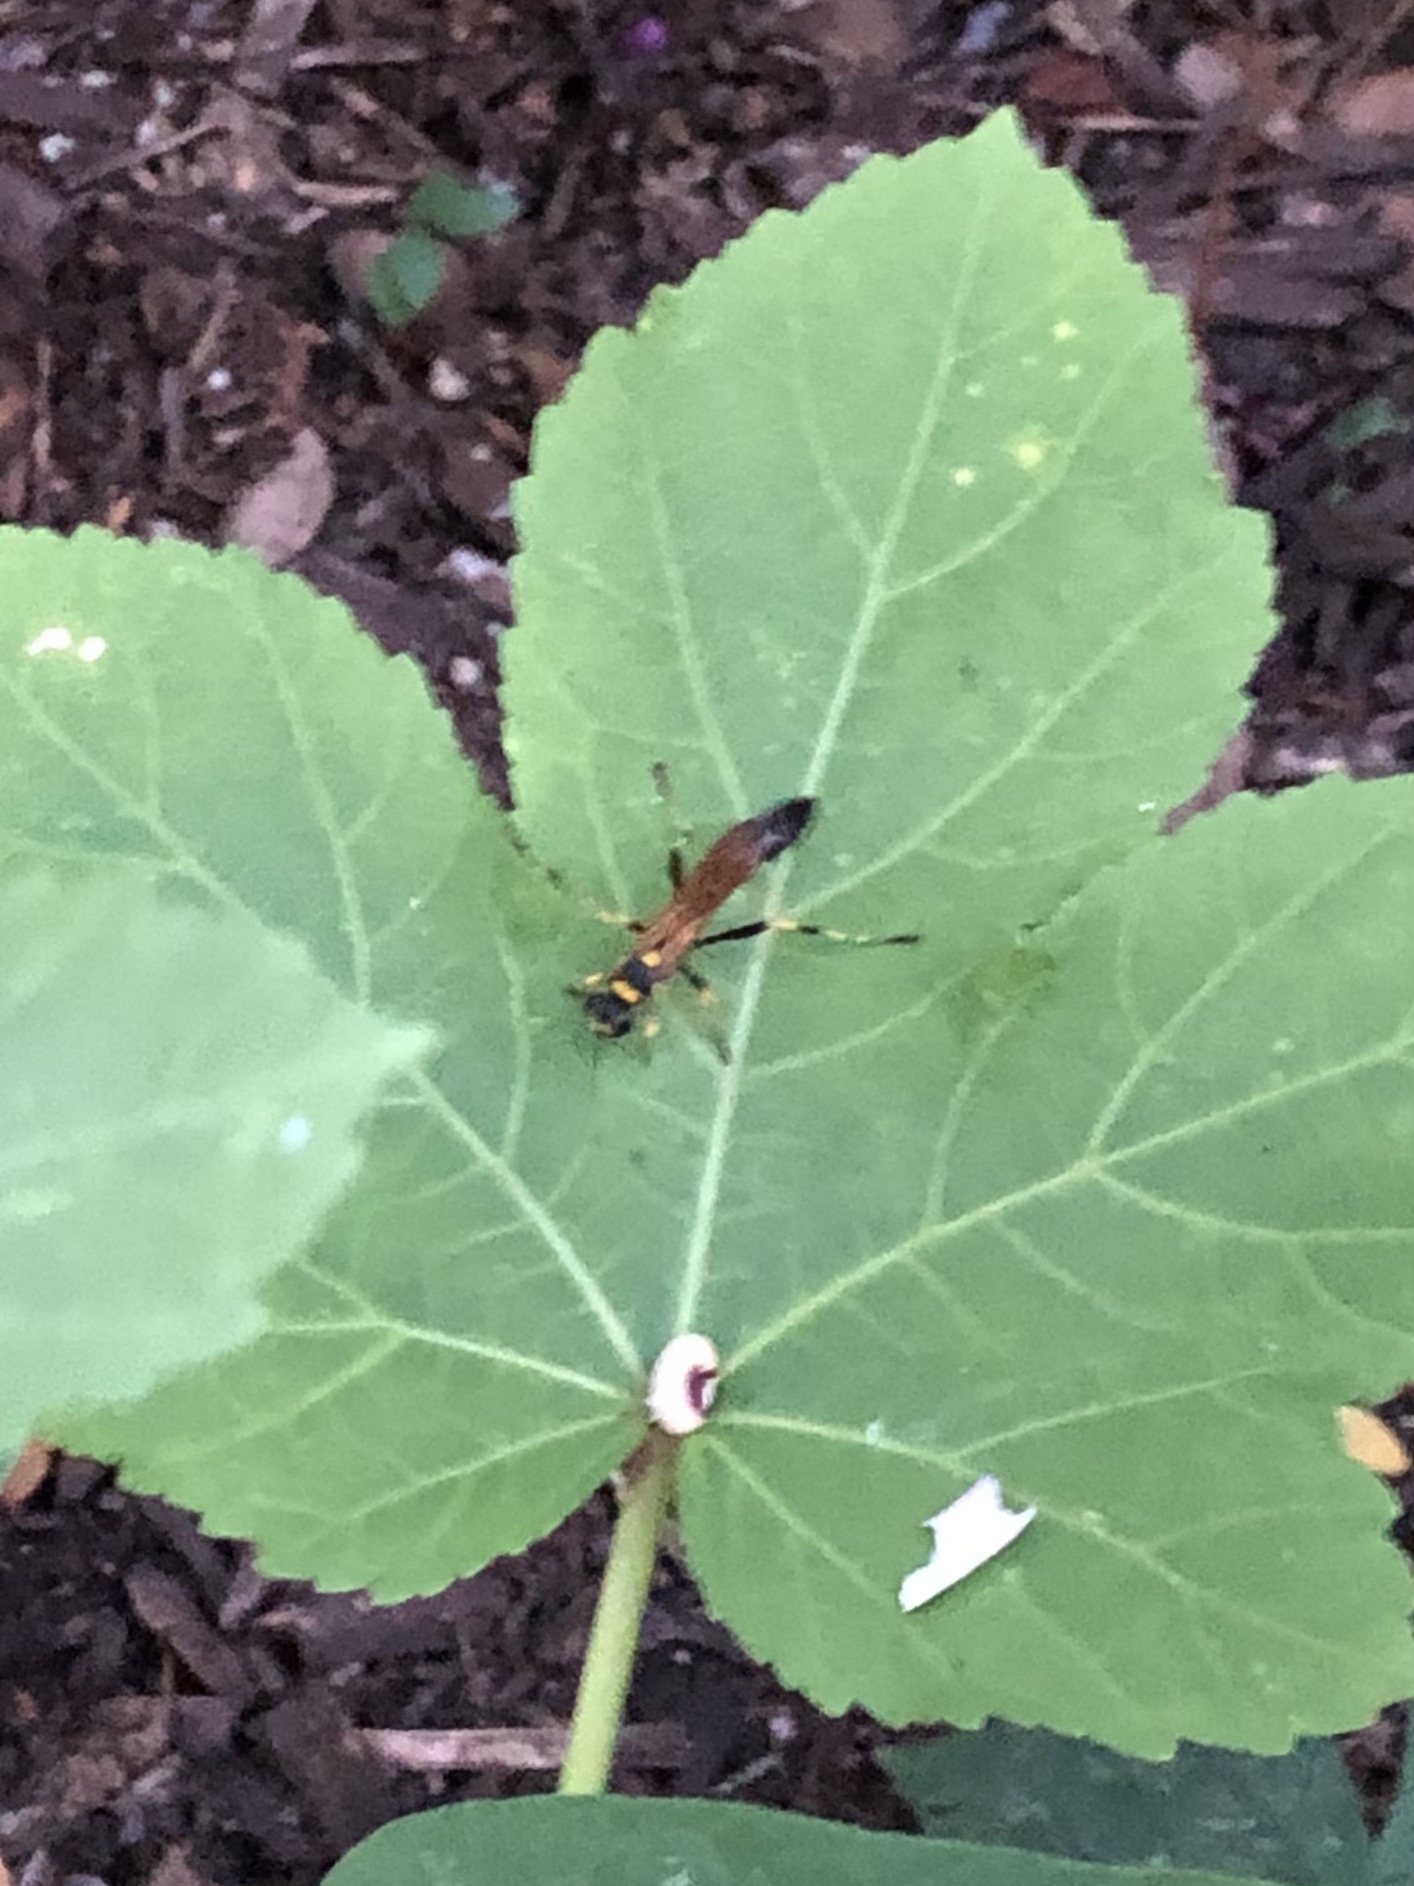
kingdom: Animalia
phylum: Arthropoda
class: Insecta
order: Hymenoptera
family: Sphecidae
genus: Sceliphron
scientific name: Sceliphron caementarium
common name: Mud dauber
